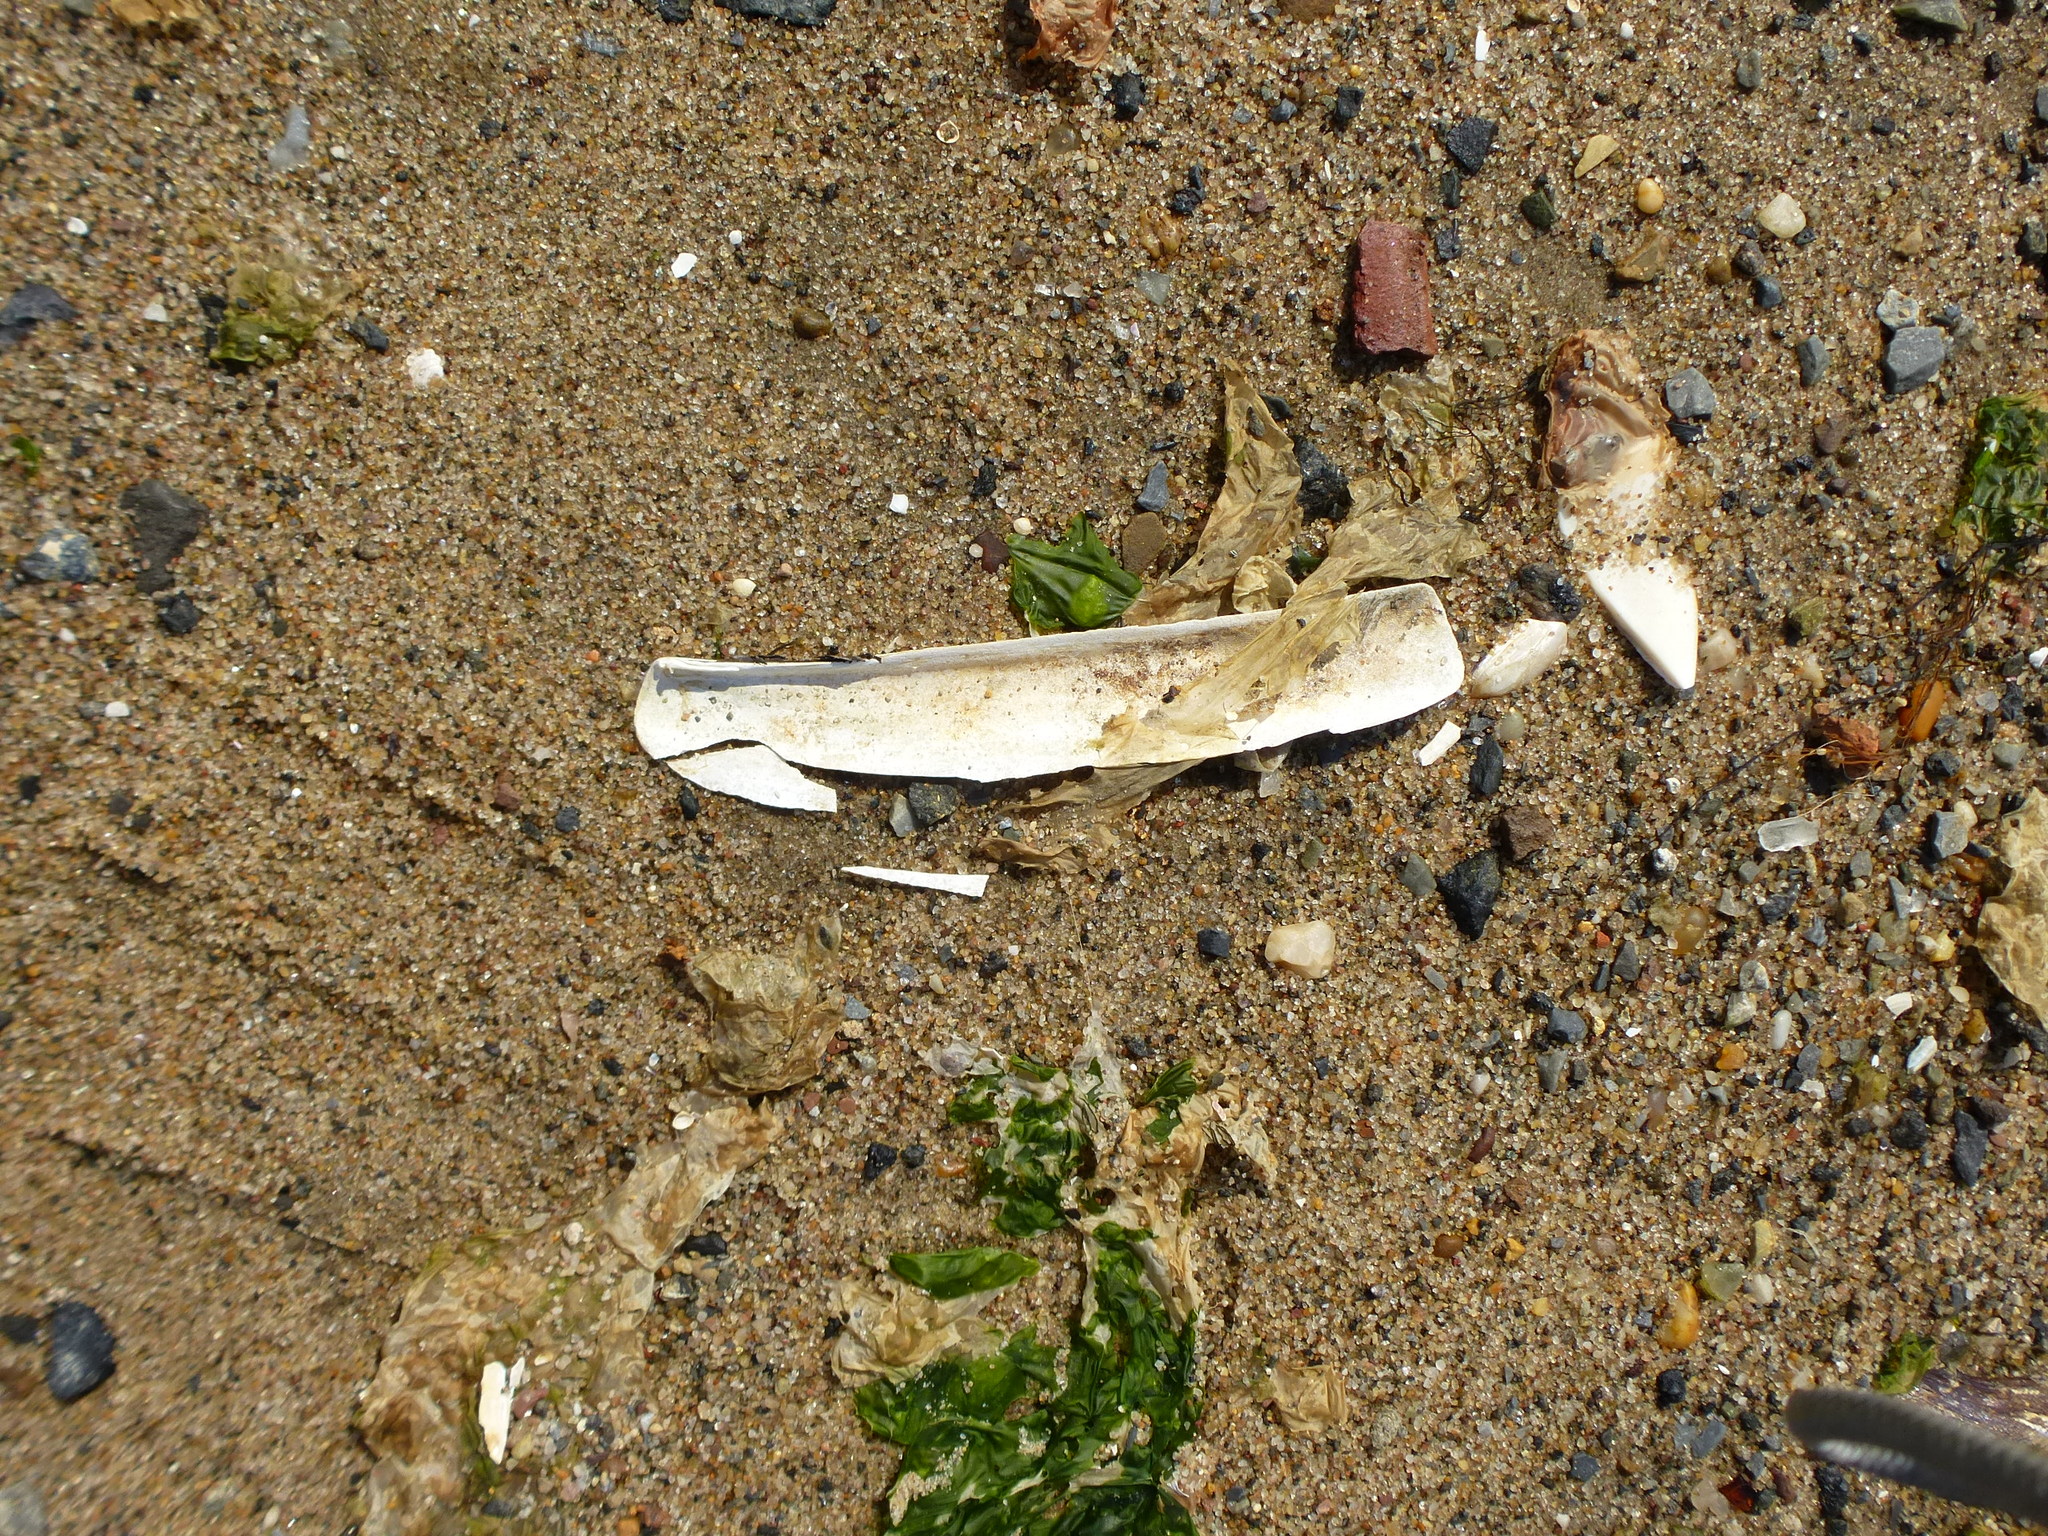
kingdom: Animalia
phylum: Mollusca
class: Bivalvia
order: Adapedonta
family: Pharidae
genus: Ensis
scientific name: Ensis leei
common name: American jack knife clam
